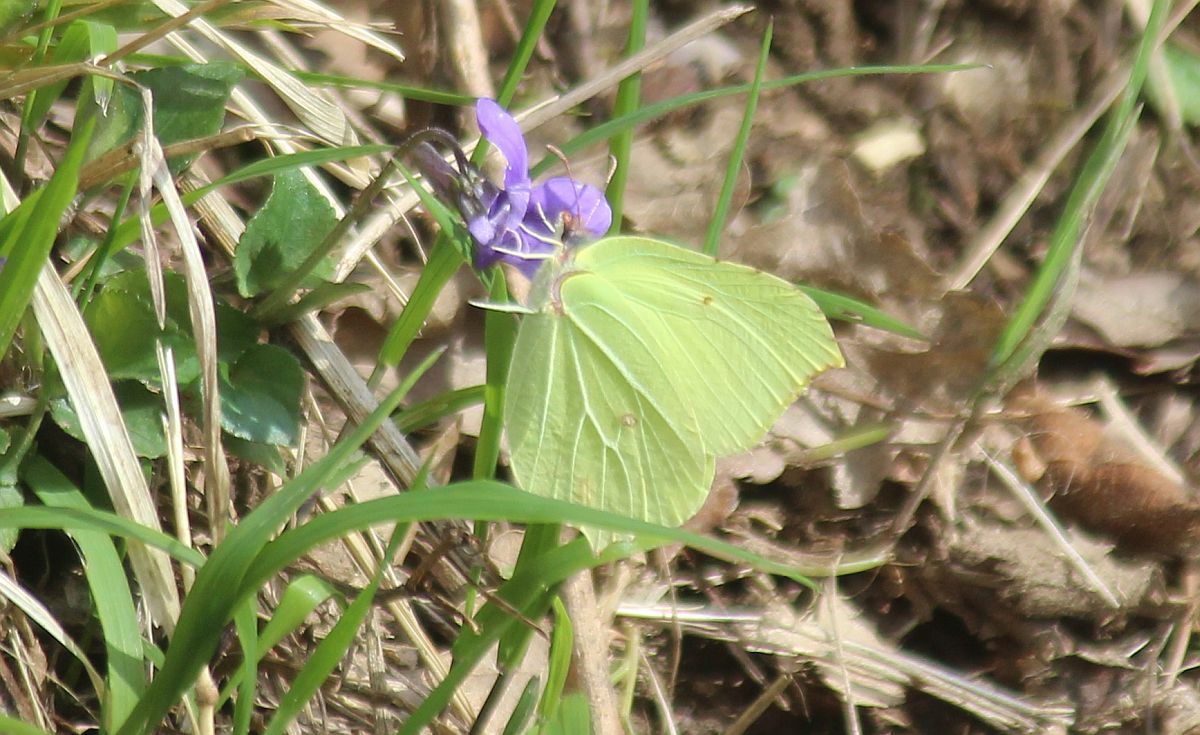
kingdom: Animalia
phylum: Arthropoda
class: Insecta
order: Lepidoptera
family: Pieridae
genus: Gonepteryx
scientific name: Gonepteryx rhamni
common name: Brimstone
